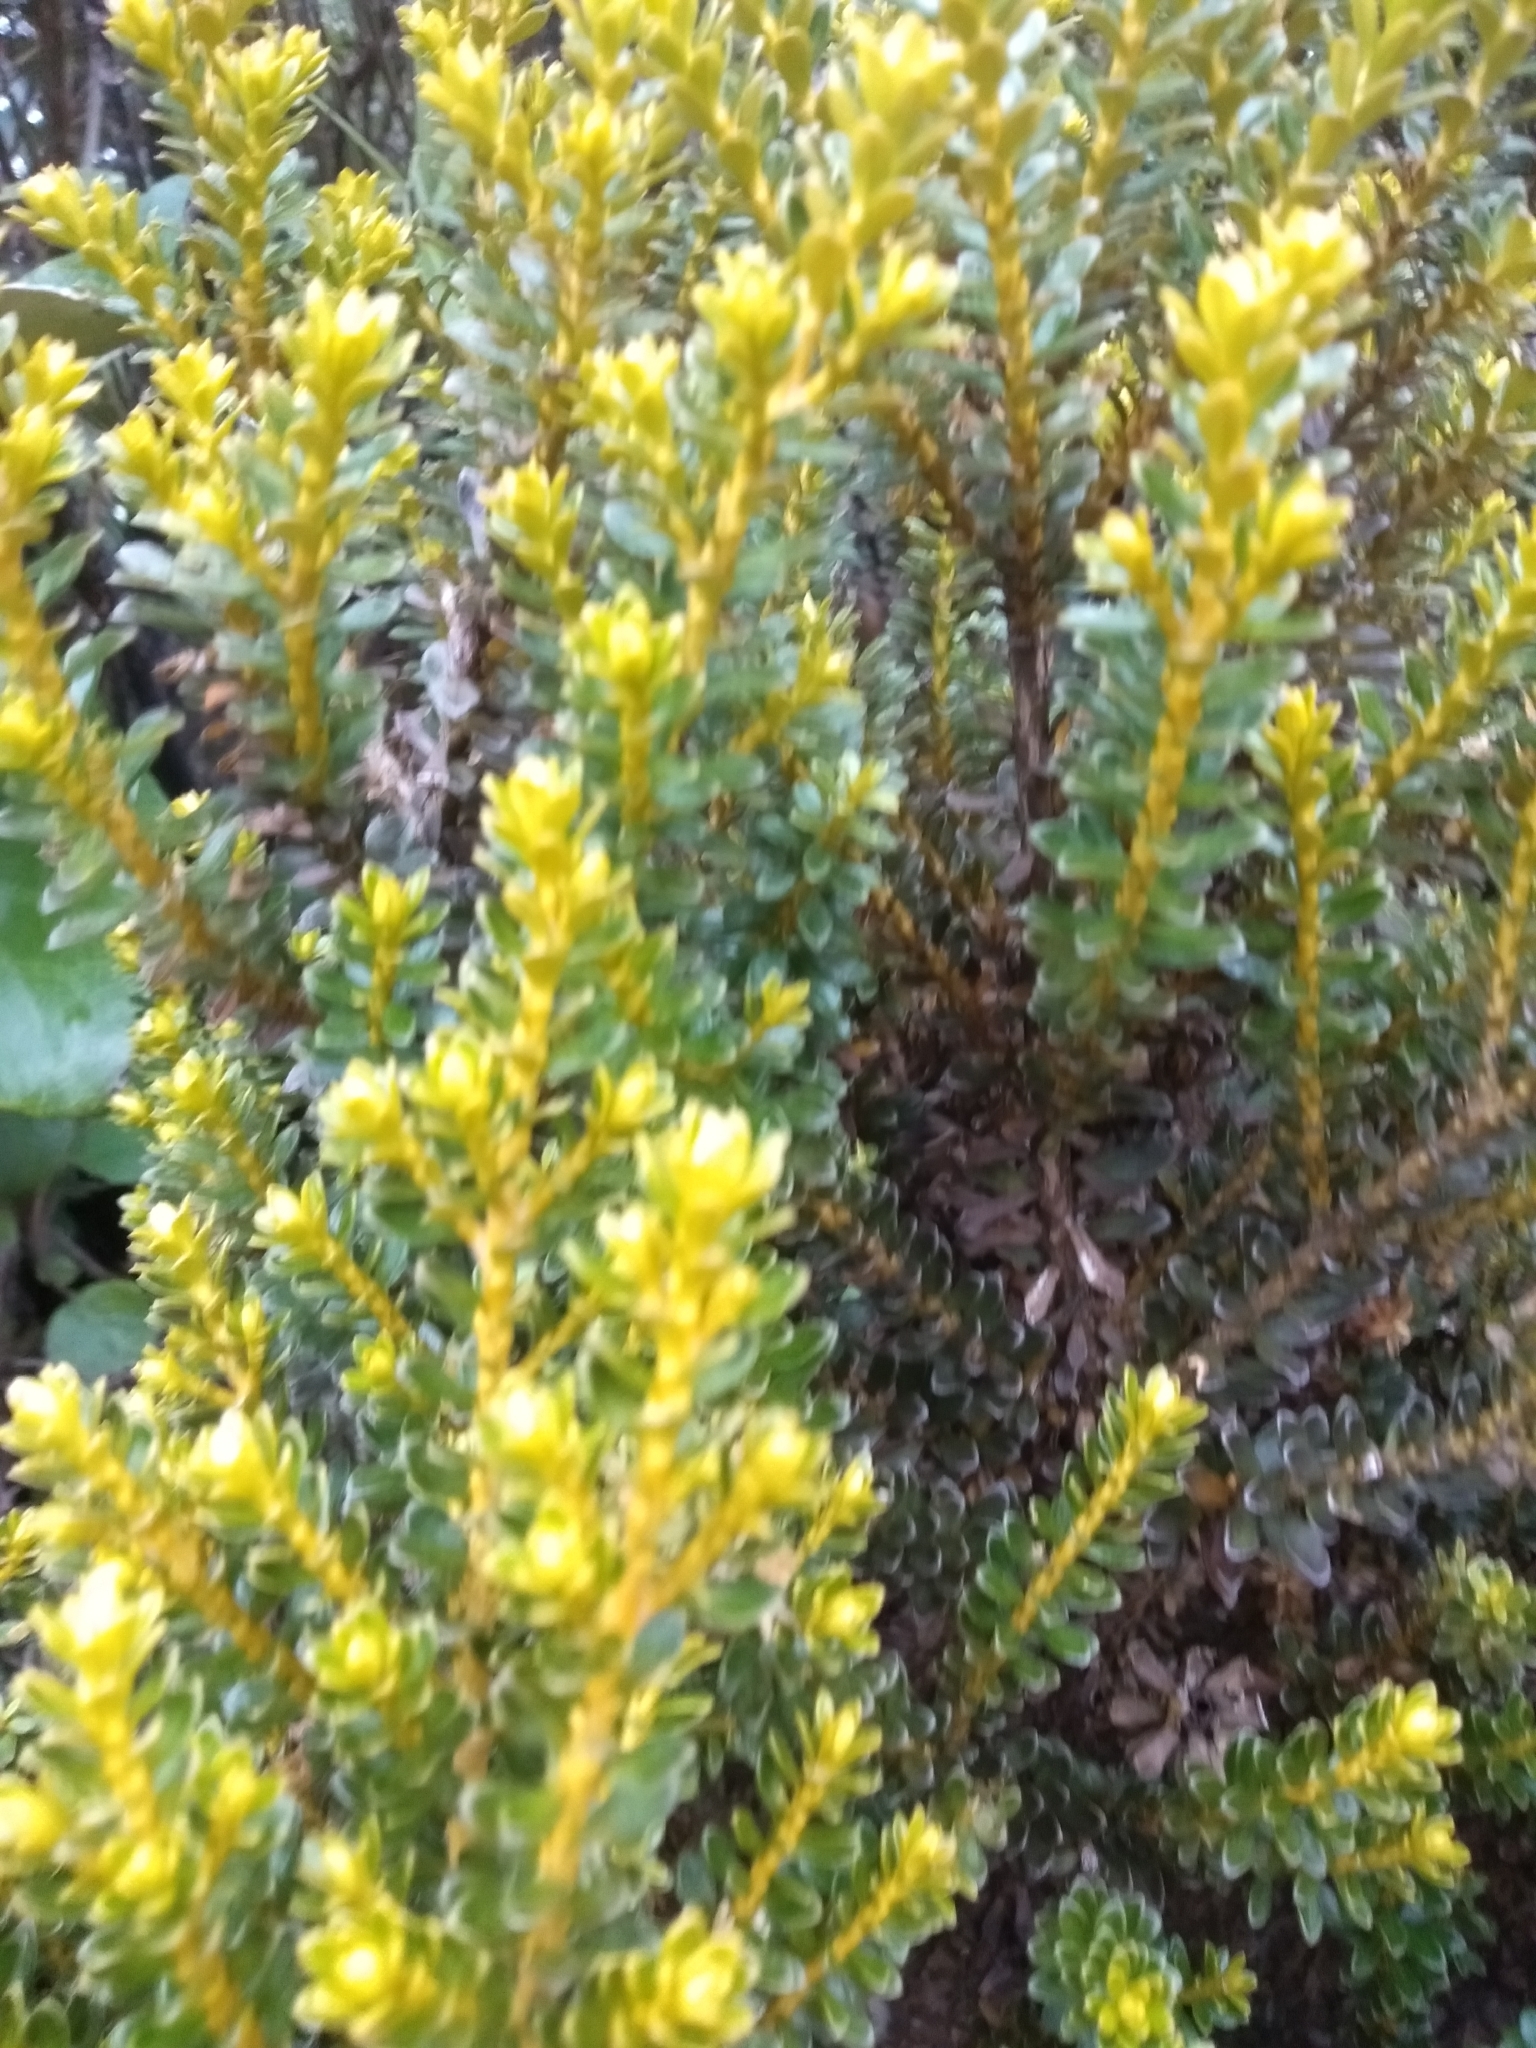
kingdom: Plantae
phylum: Tracheophyta
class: Magnoliopsida
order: Asterales
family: Asteraceae
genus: Ozothamnus
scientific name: Ozothamnus leptophyllus
